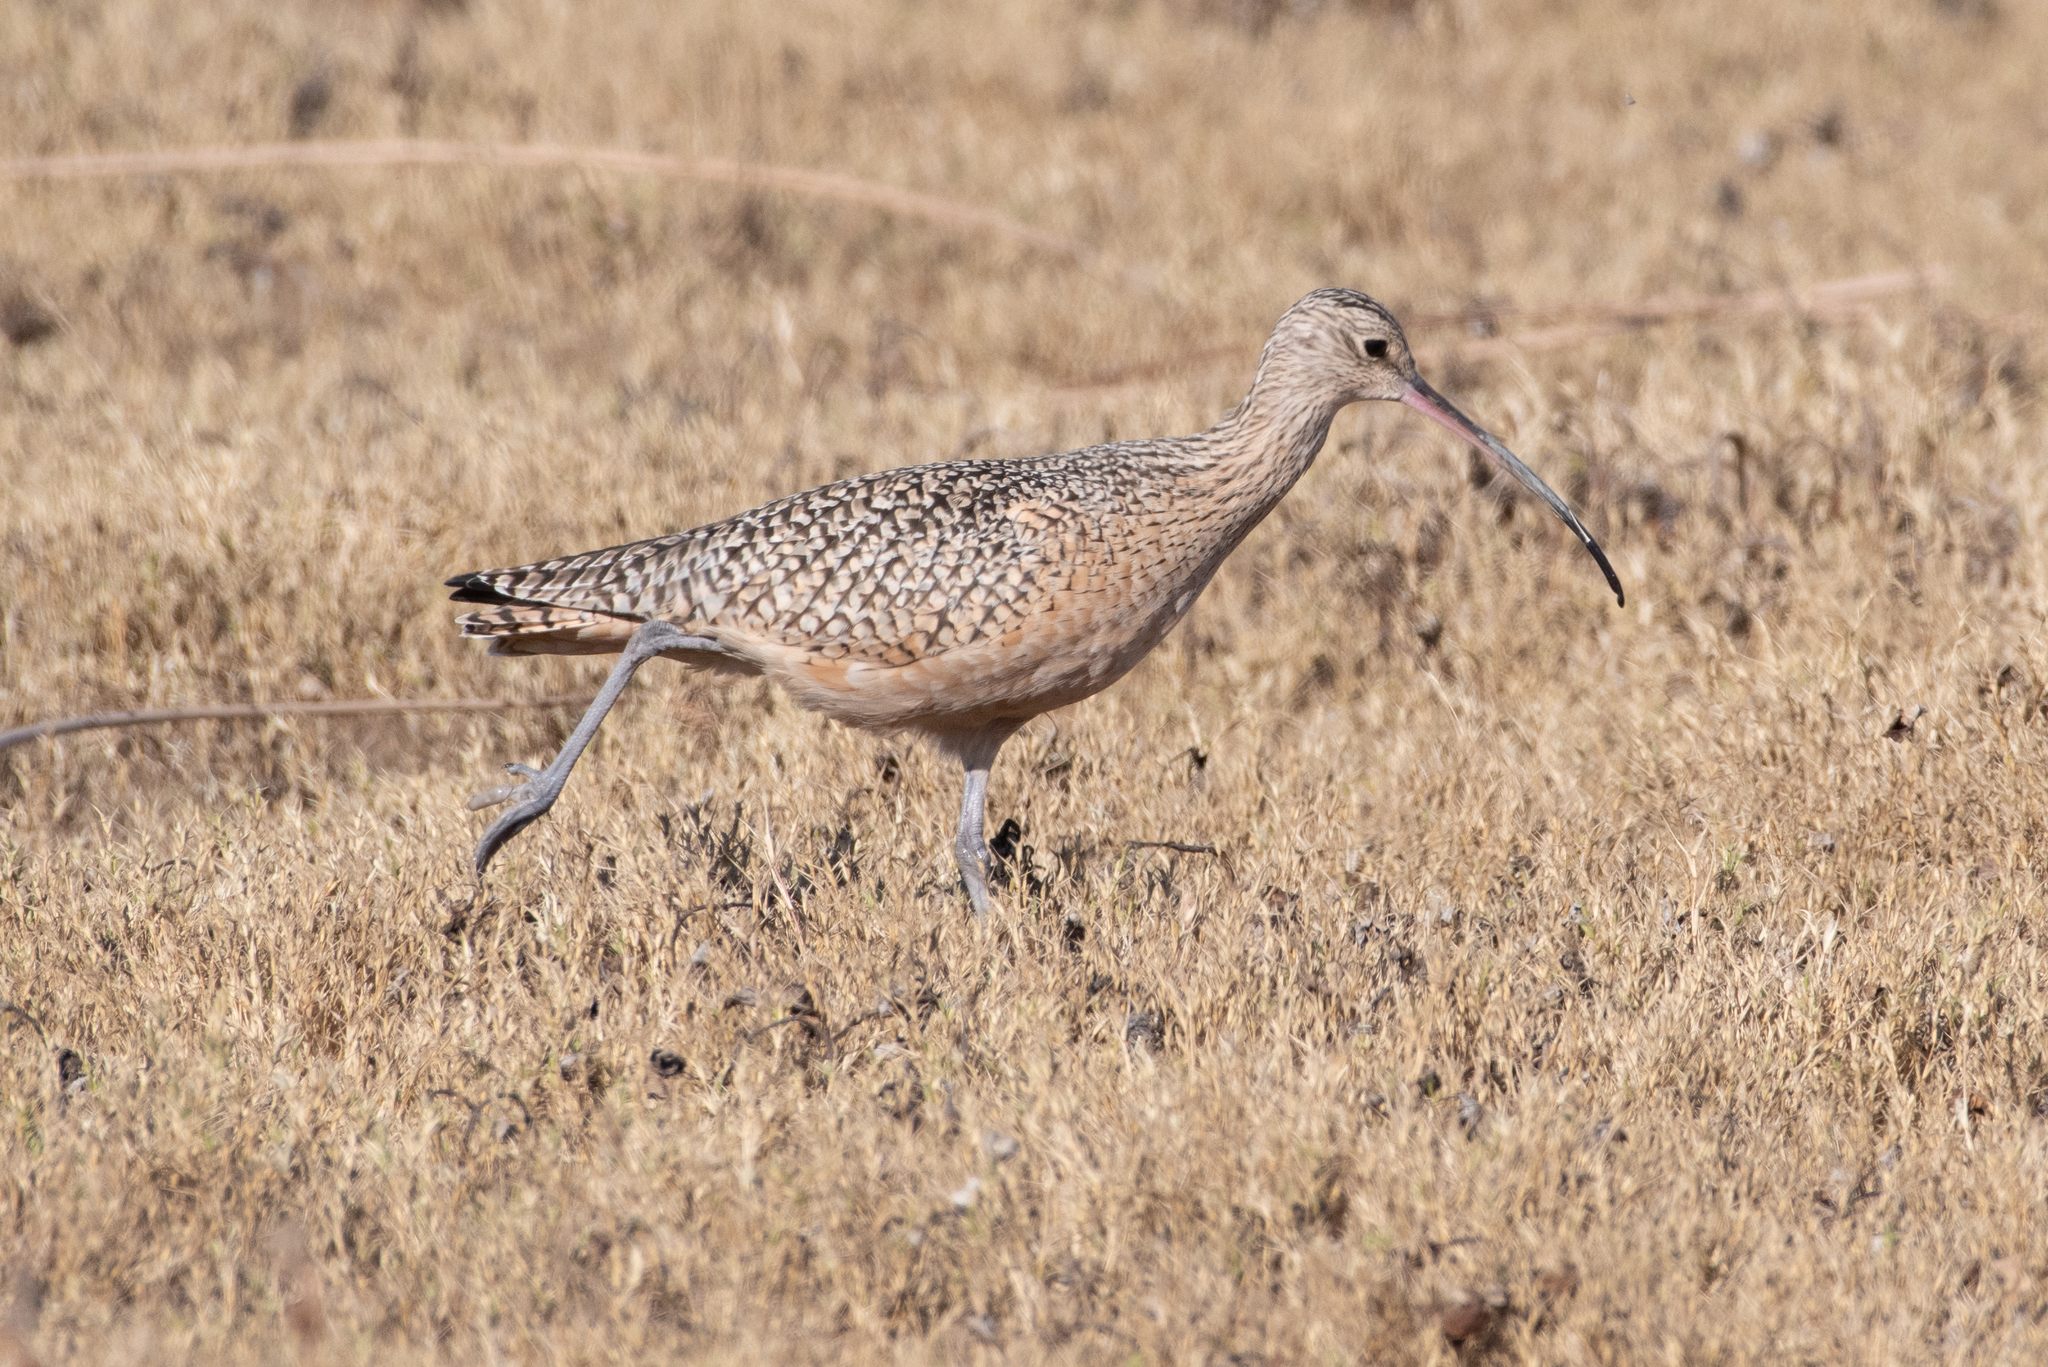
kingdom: Animalia
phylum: Chordata
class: Aves
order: Charadriiformes
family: Scolopacidae
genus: Numenius
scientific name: Numenius americanus
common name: Long-billed curlew
